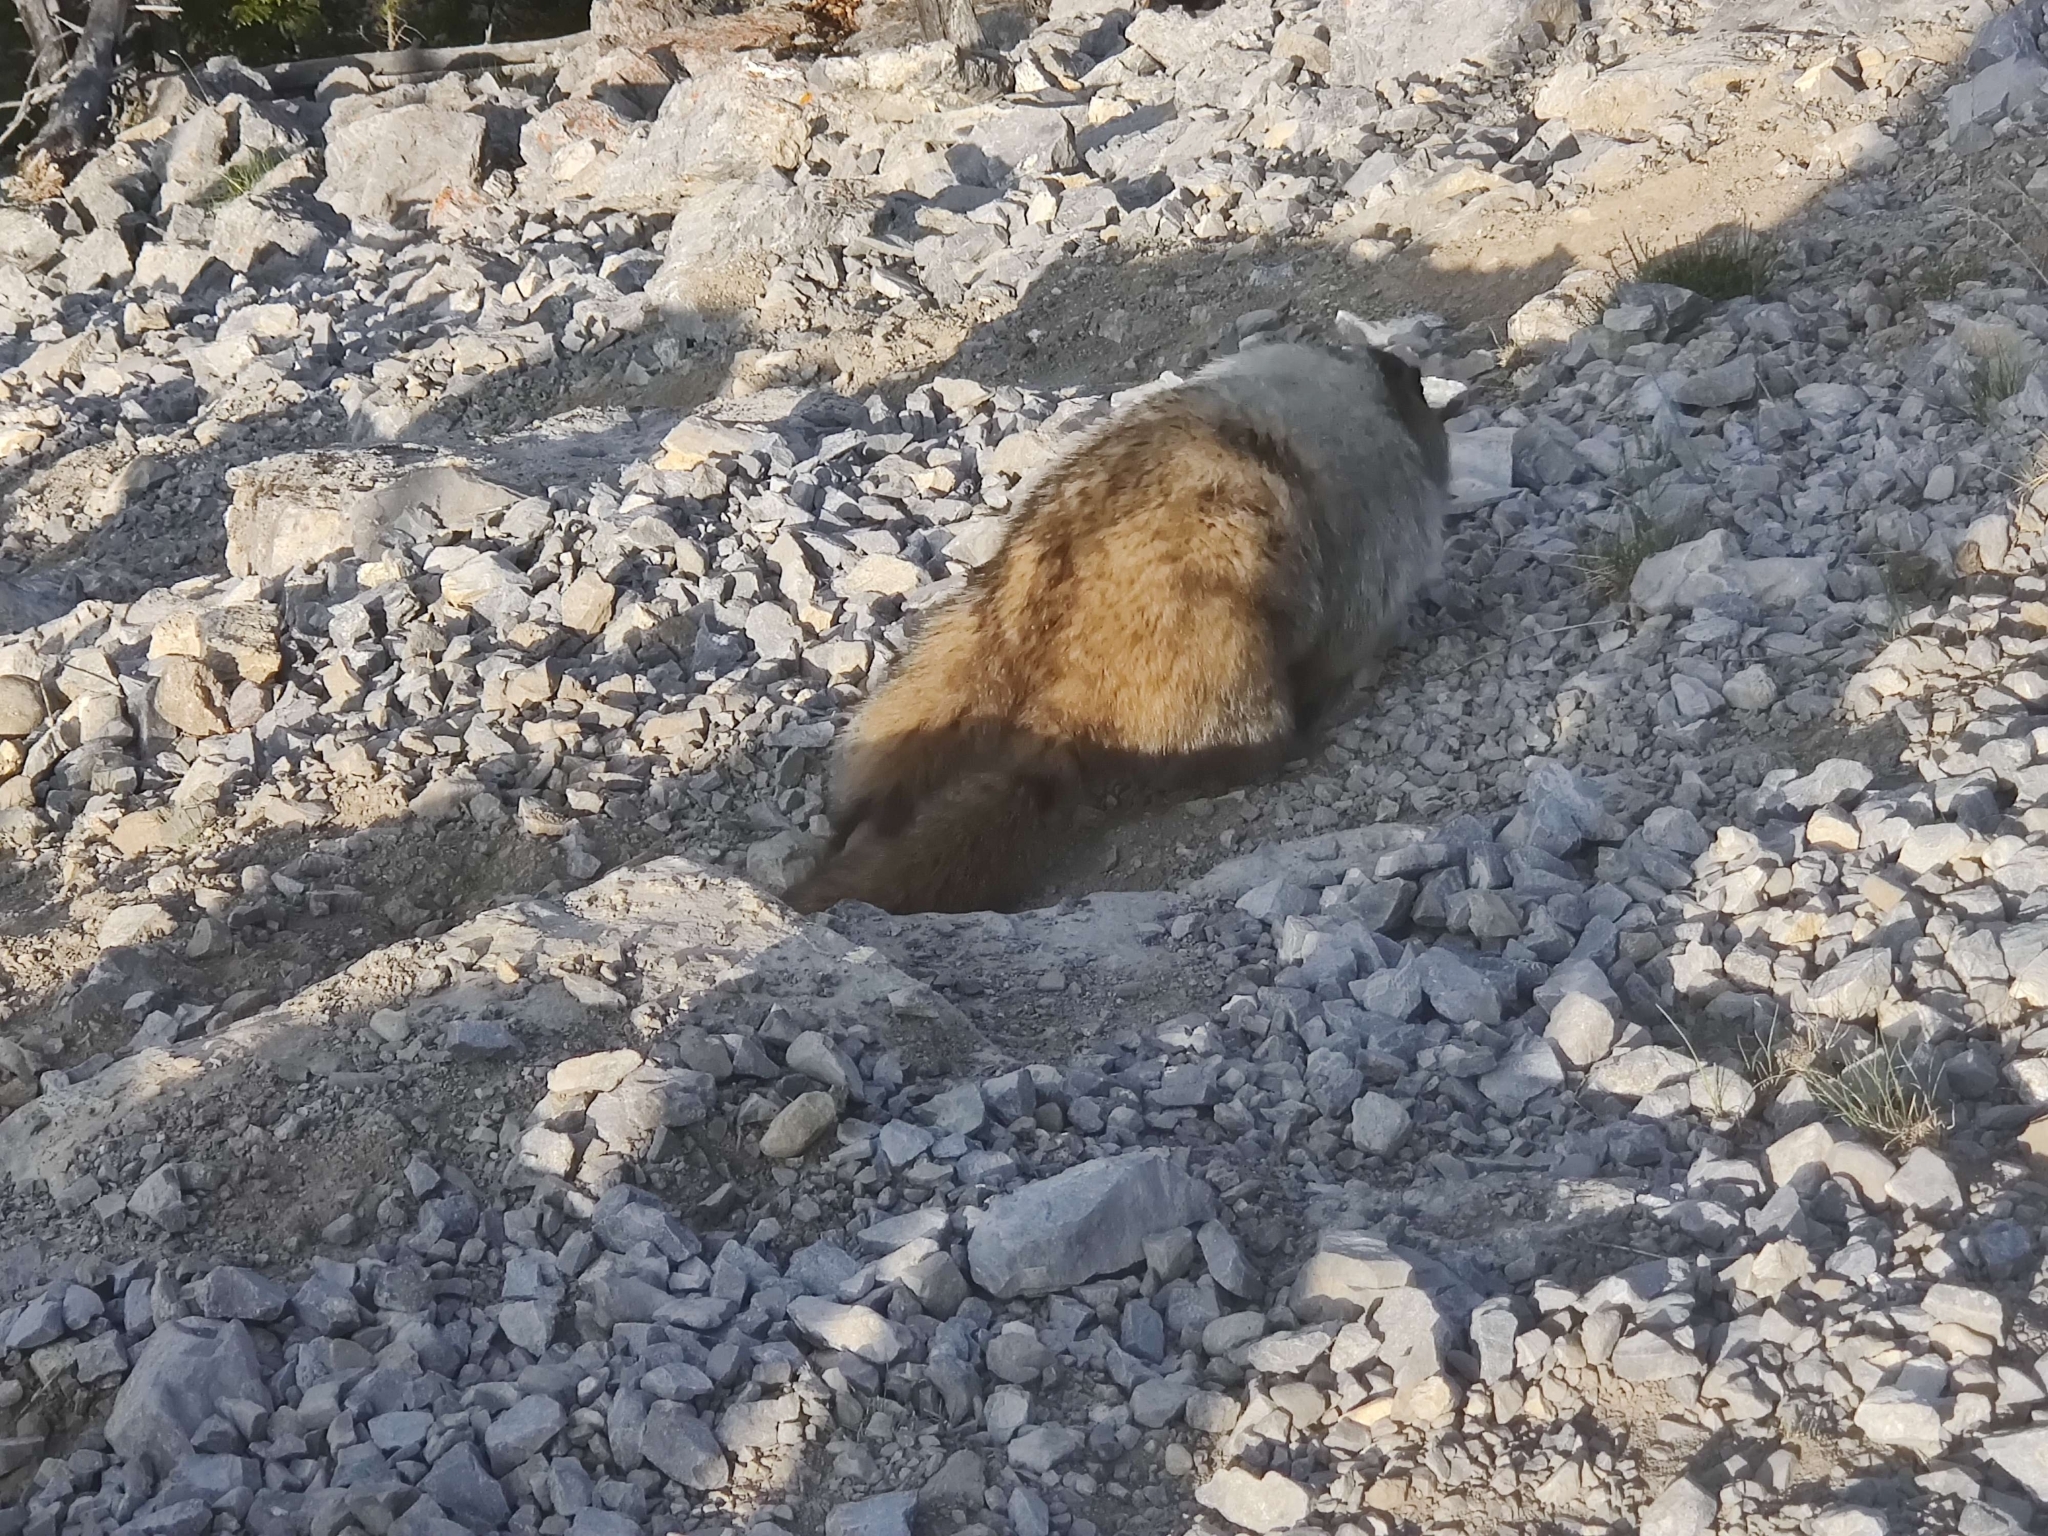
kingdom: Animalia
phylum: Chordata
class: Mammalia
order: Rodentia
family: Sciuridae
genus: Marmota
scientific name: Marmota caligata
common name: Hoary marmot
